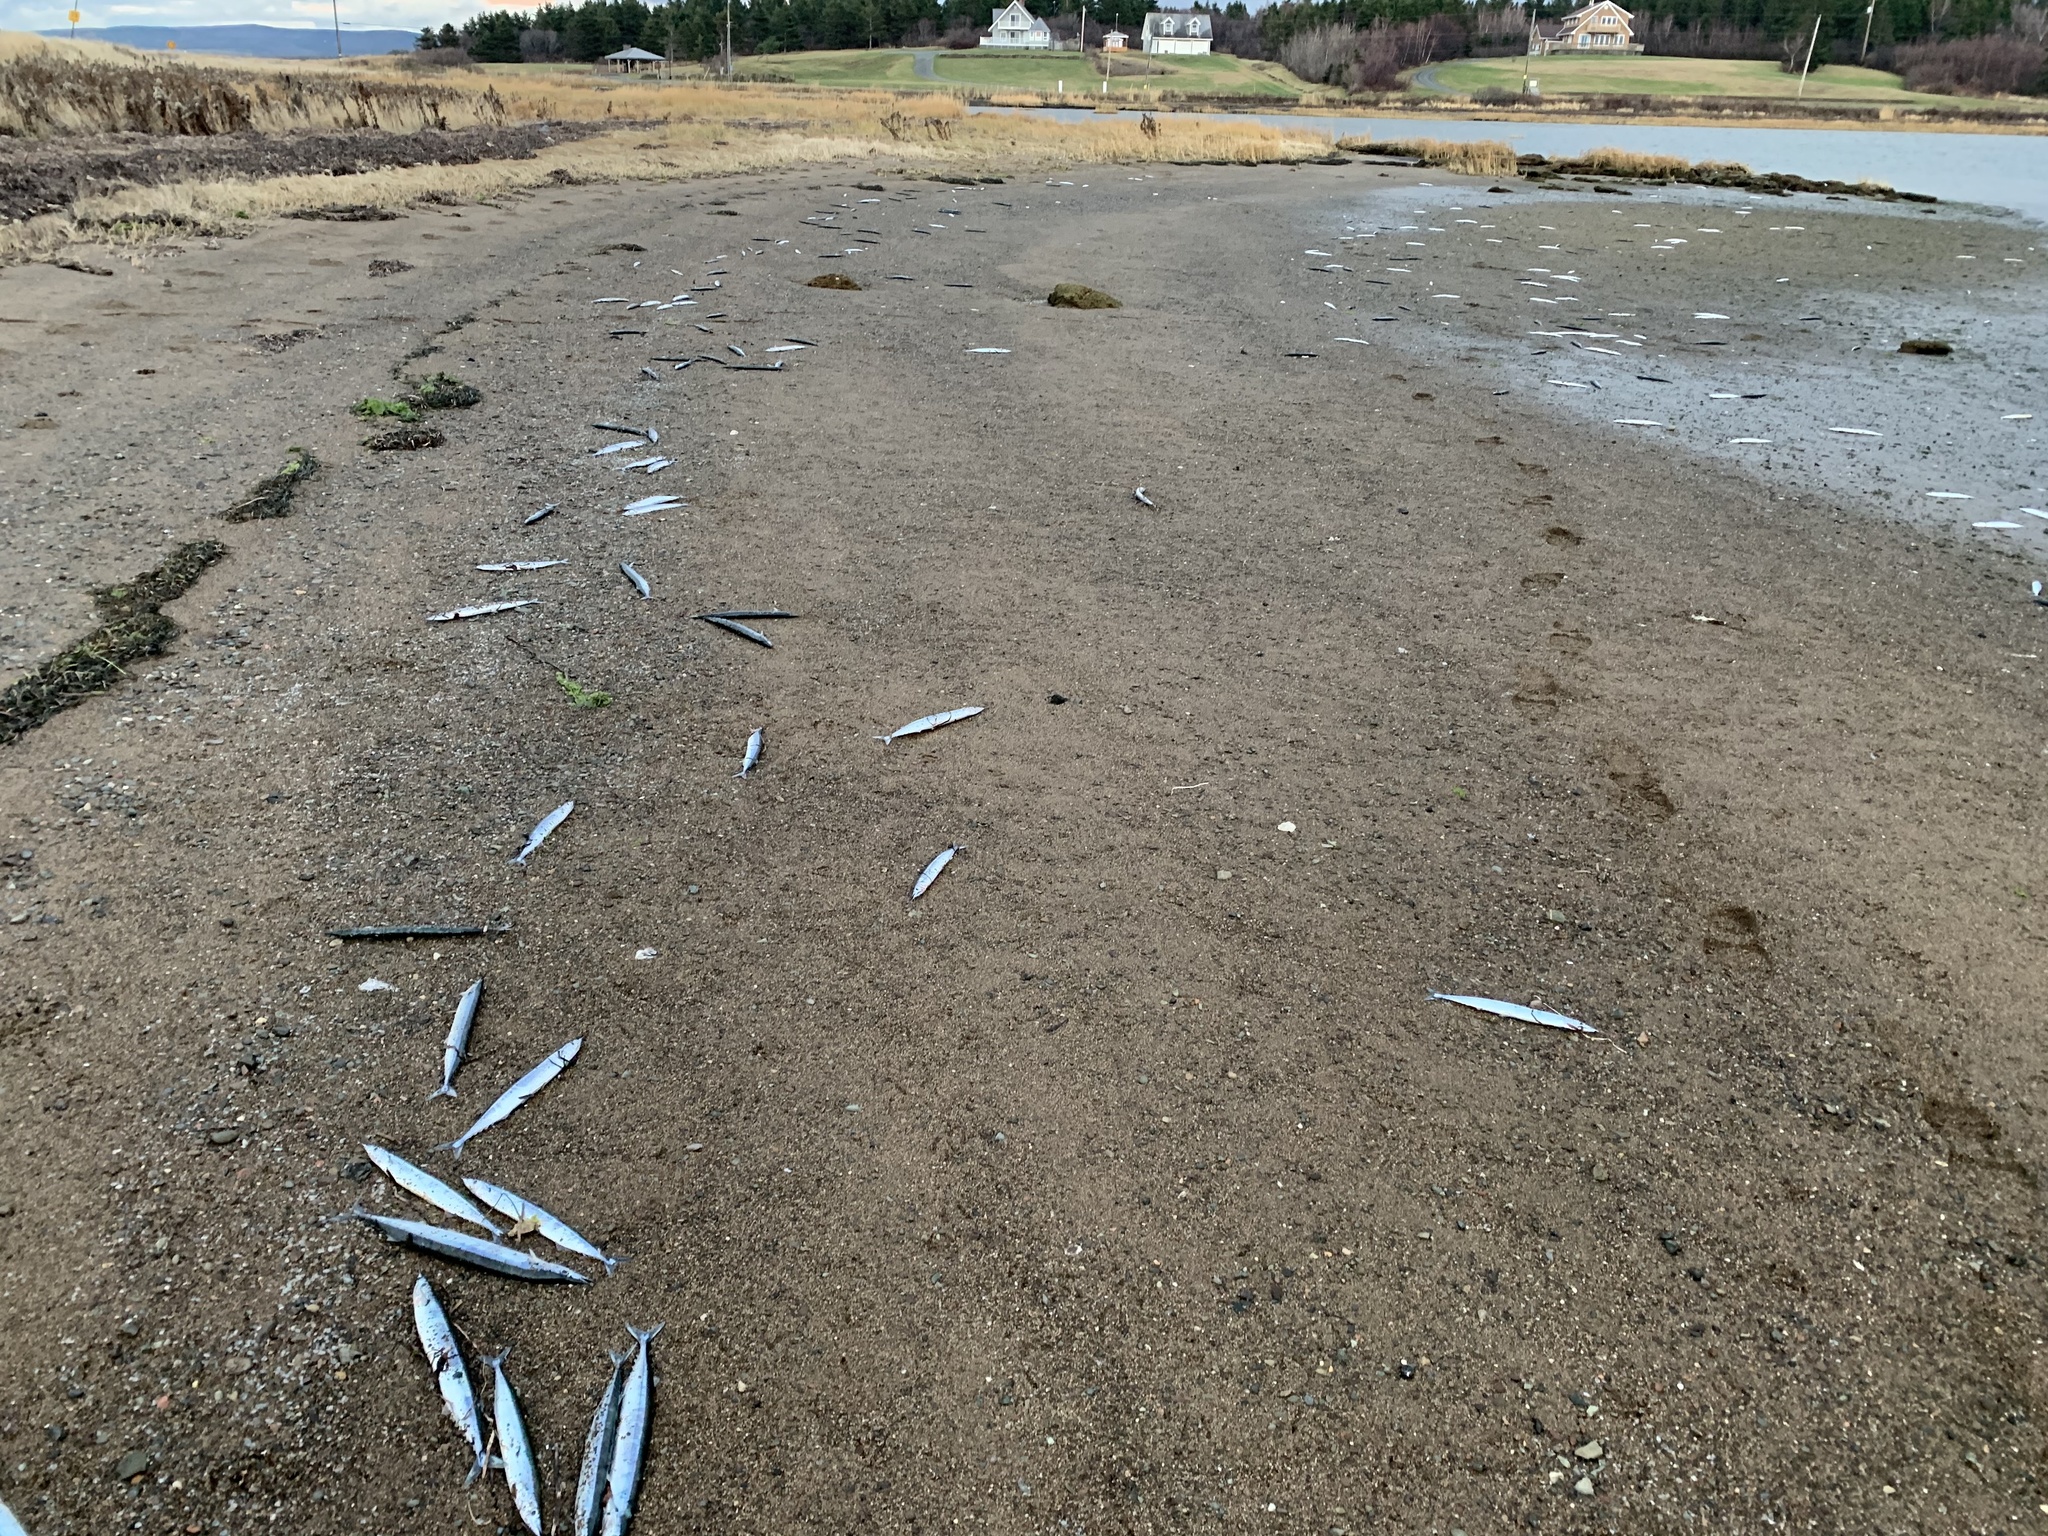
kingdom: Animalia
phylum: Chordata
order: Beloniformes
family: Scomberesocidae
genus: Scomberesox
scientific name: Scomberesox saurus
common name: Skipper
